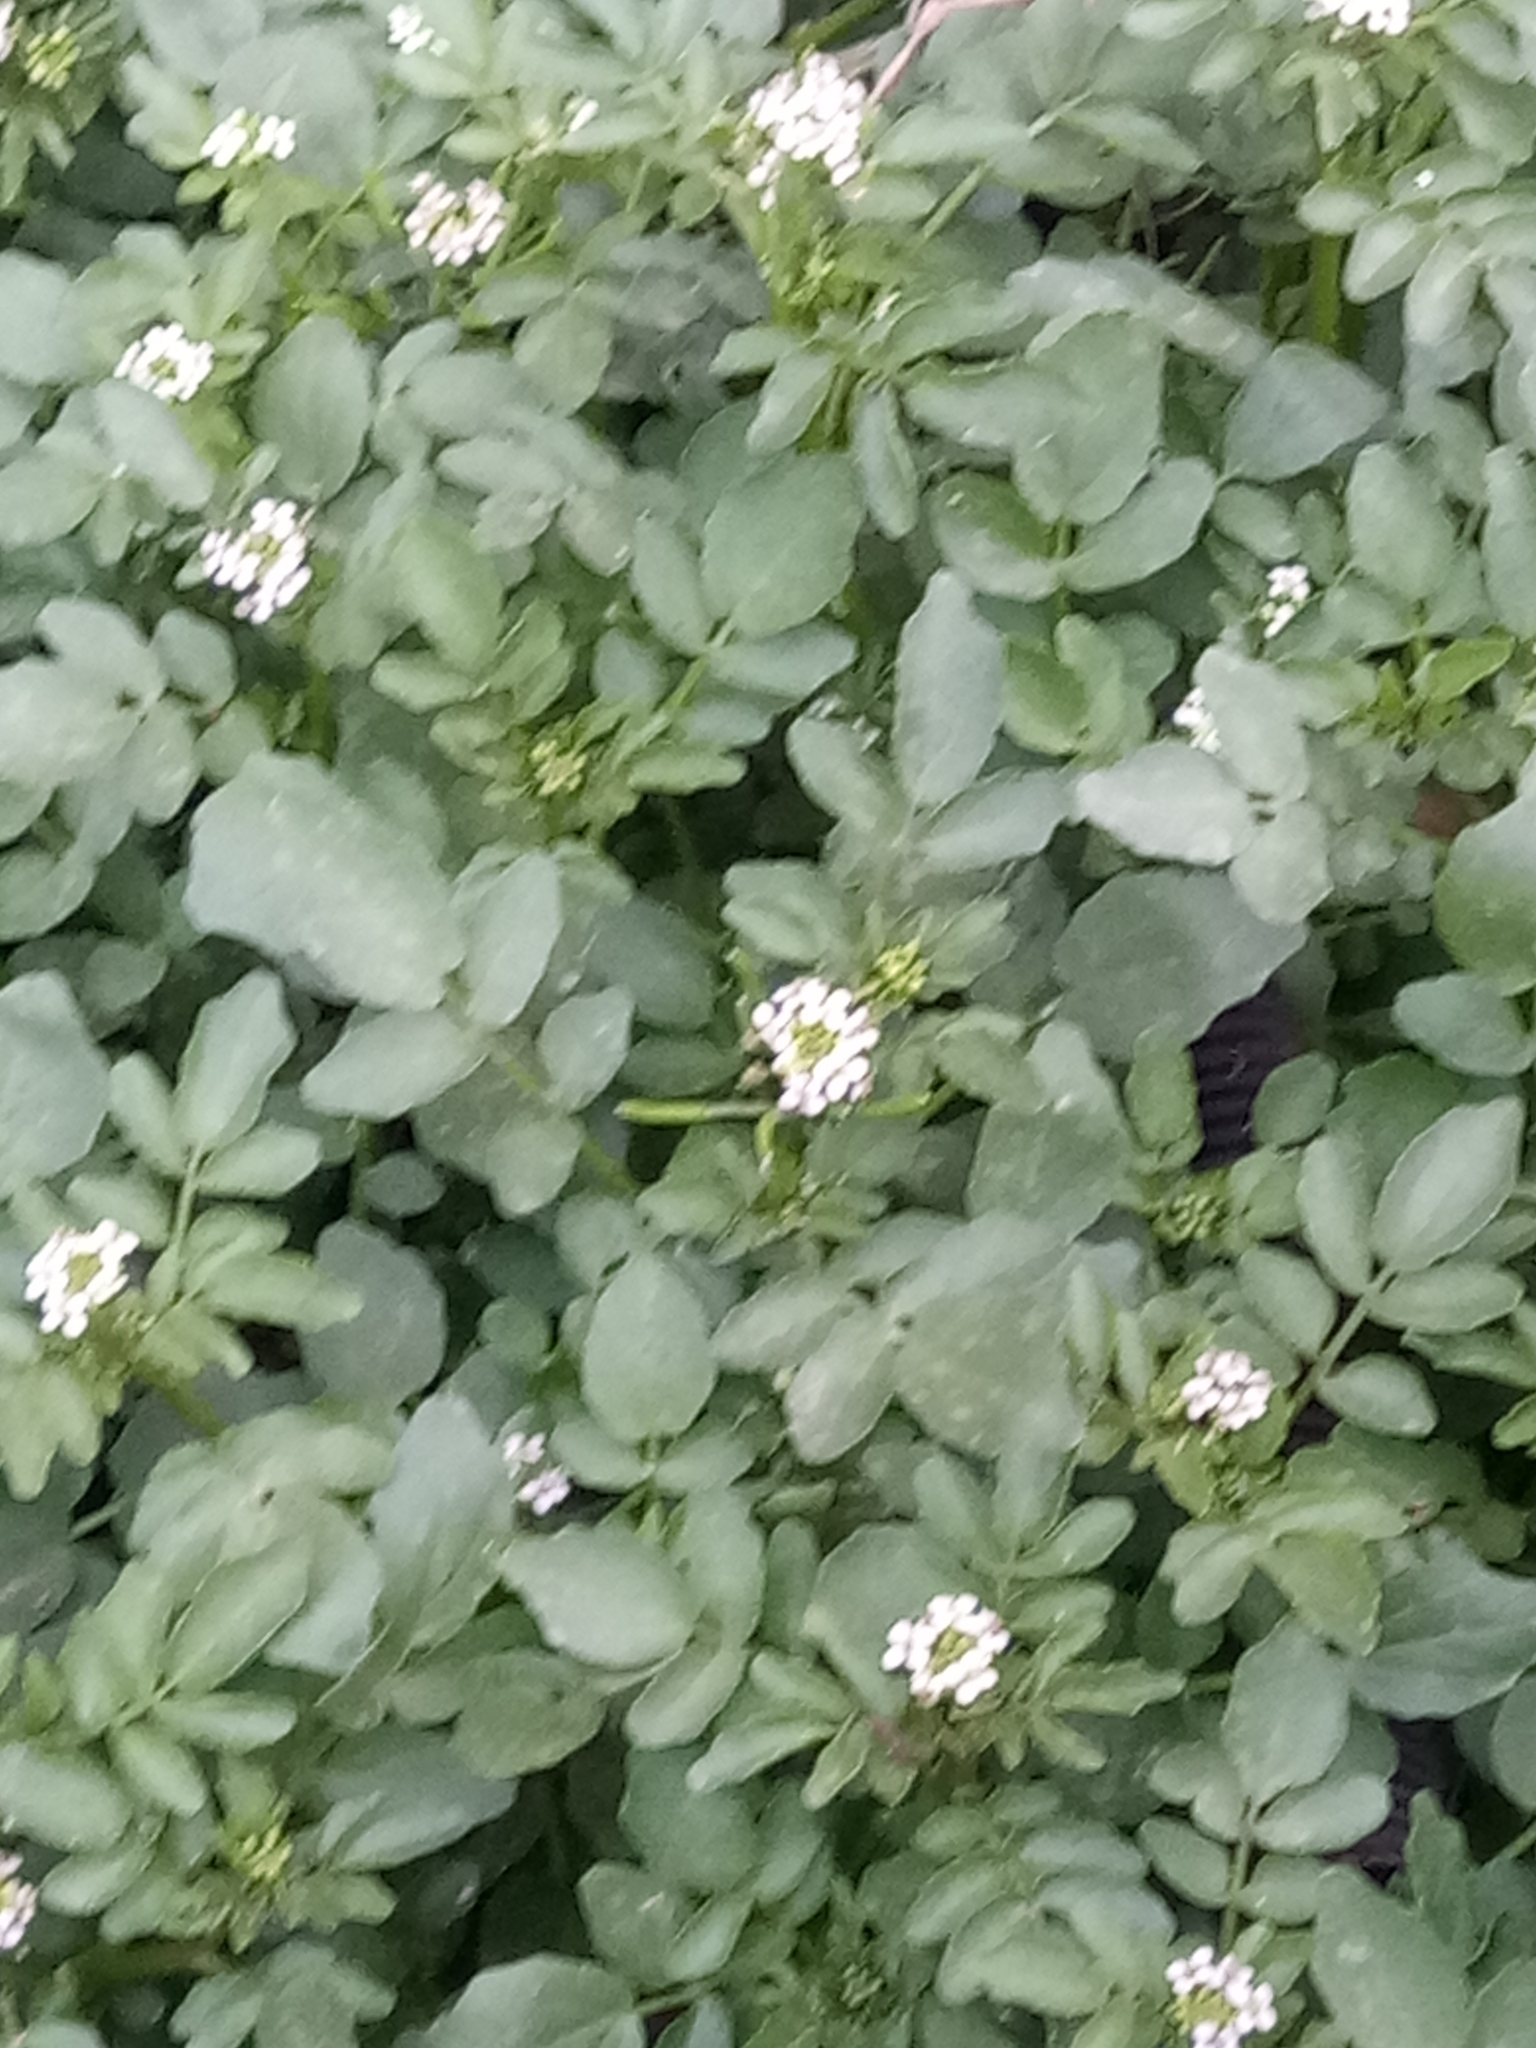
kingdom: Plantae
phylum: Tracheophyta
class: Magnoliopsida
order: Brassicales
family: Brassicaceae
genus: Nasturtium
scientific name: Nasturtium officinale
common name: Watercress
